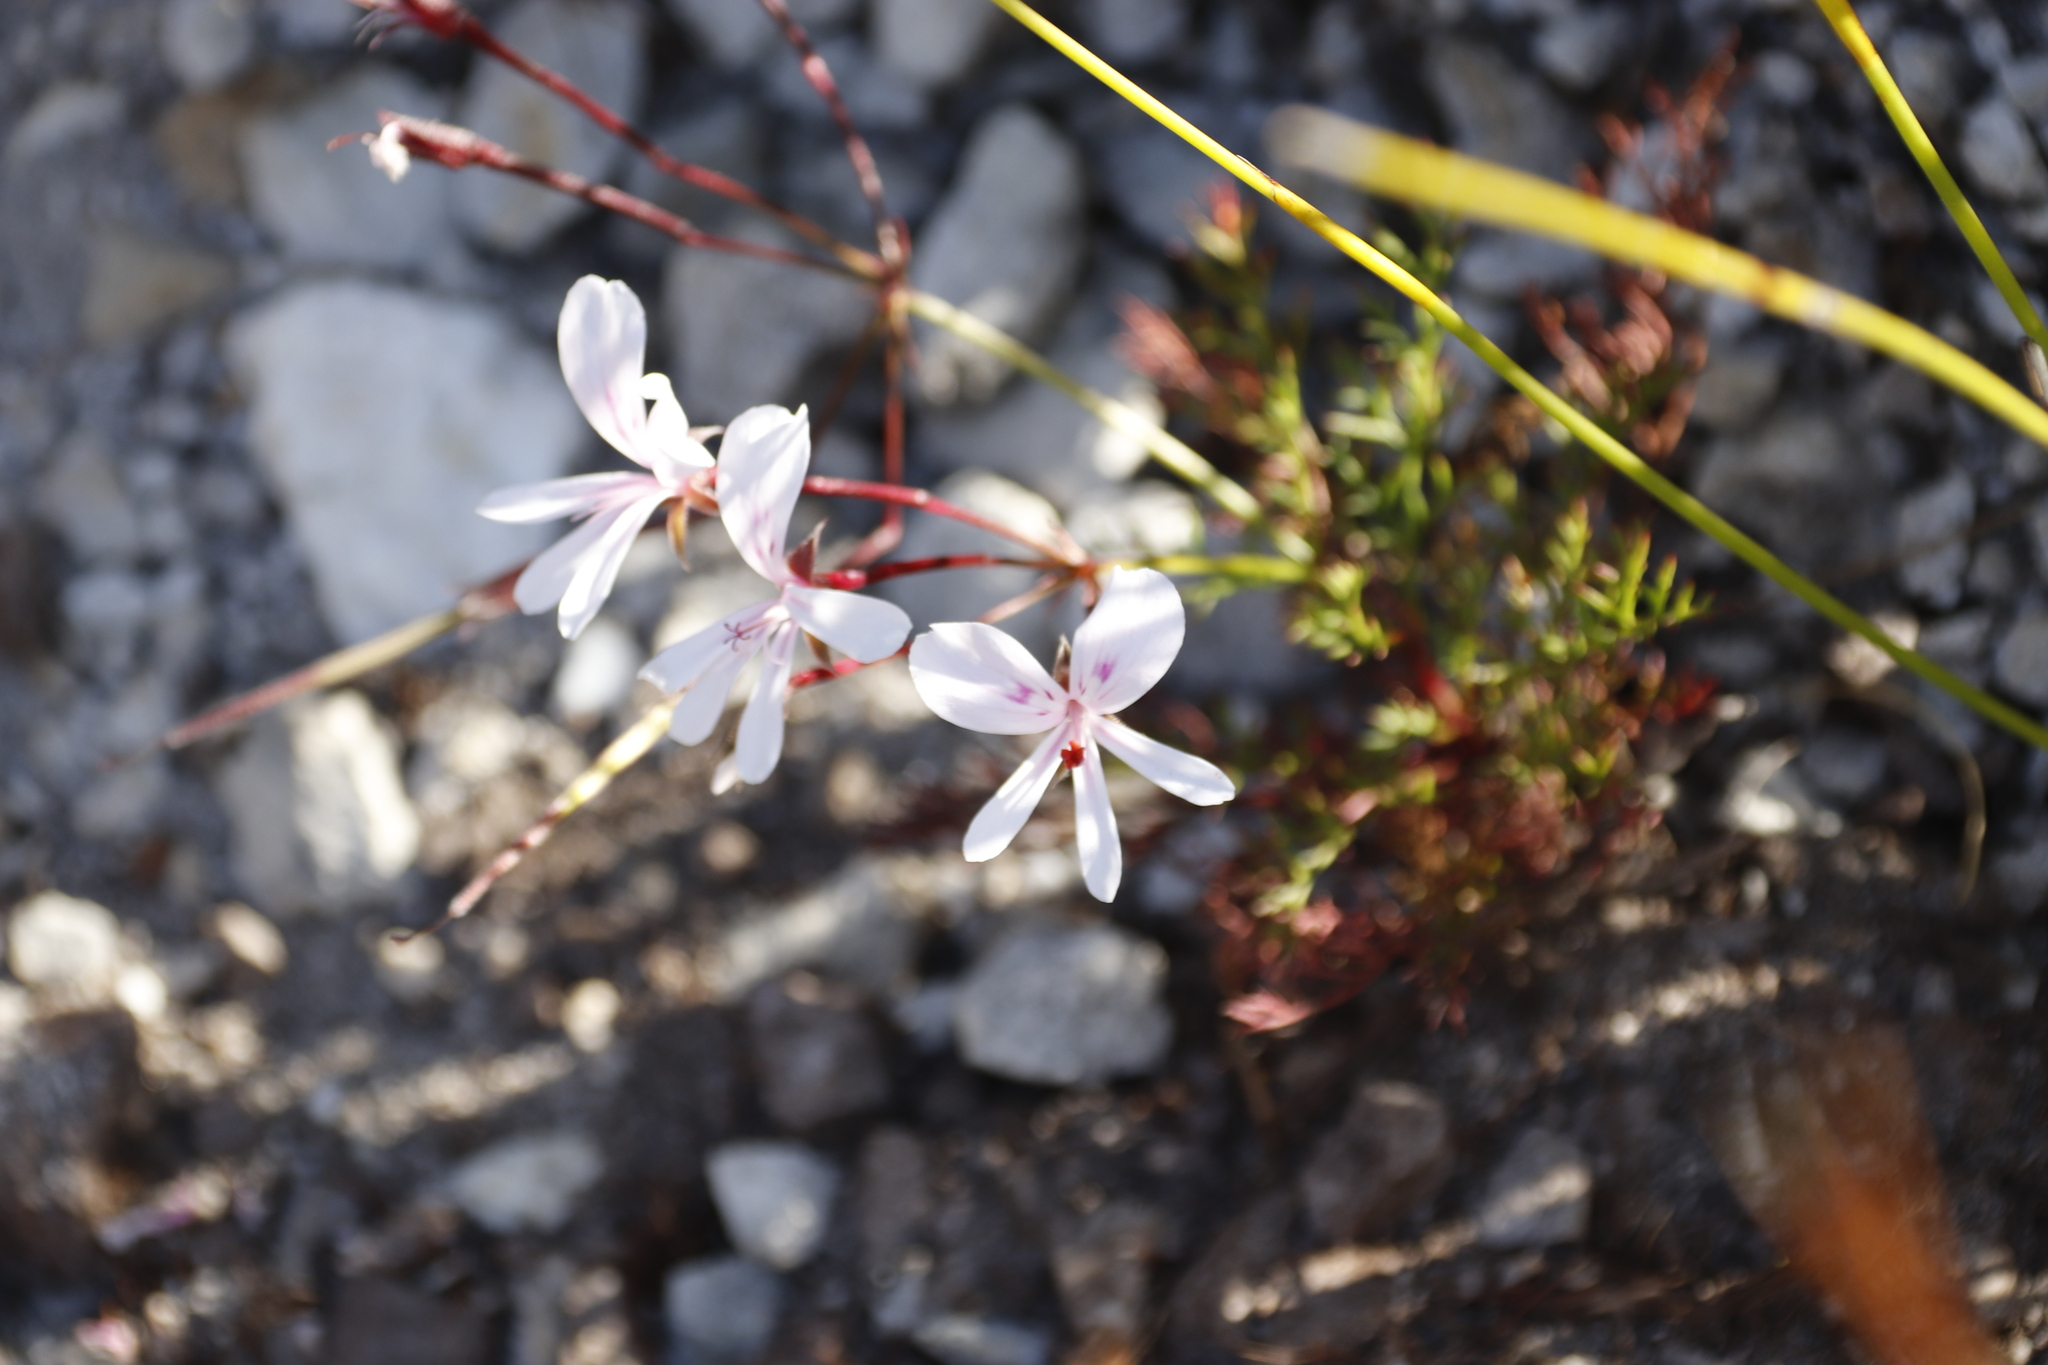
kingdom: Plantae
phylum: Tracheophyta
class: Magnoliopsida
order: Geraniales
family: Geraniaceae
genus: Pelargonium
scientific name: Pelargonium artemisiifolium
